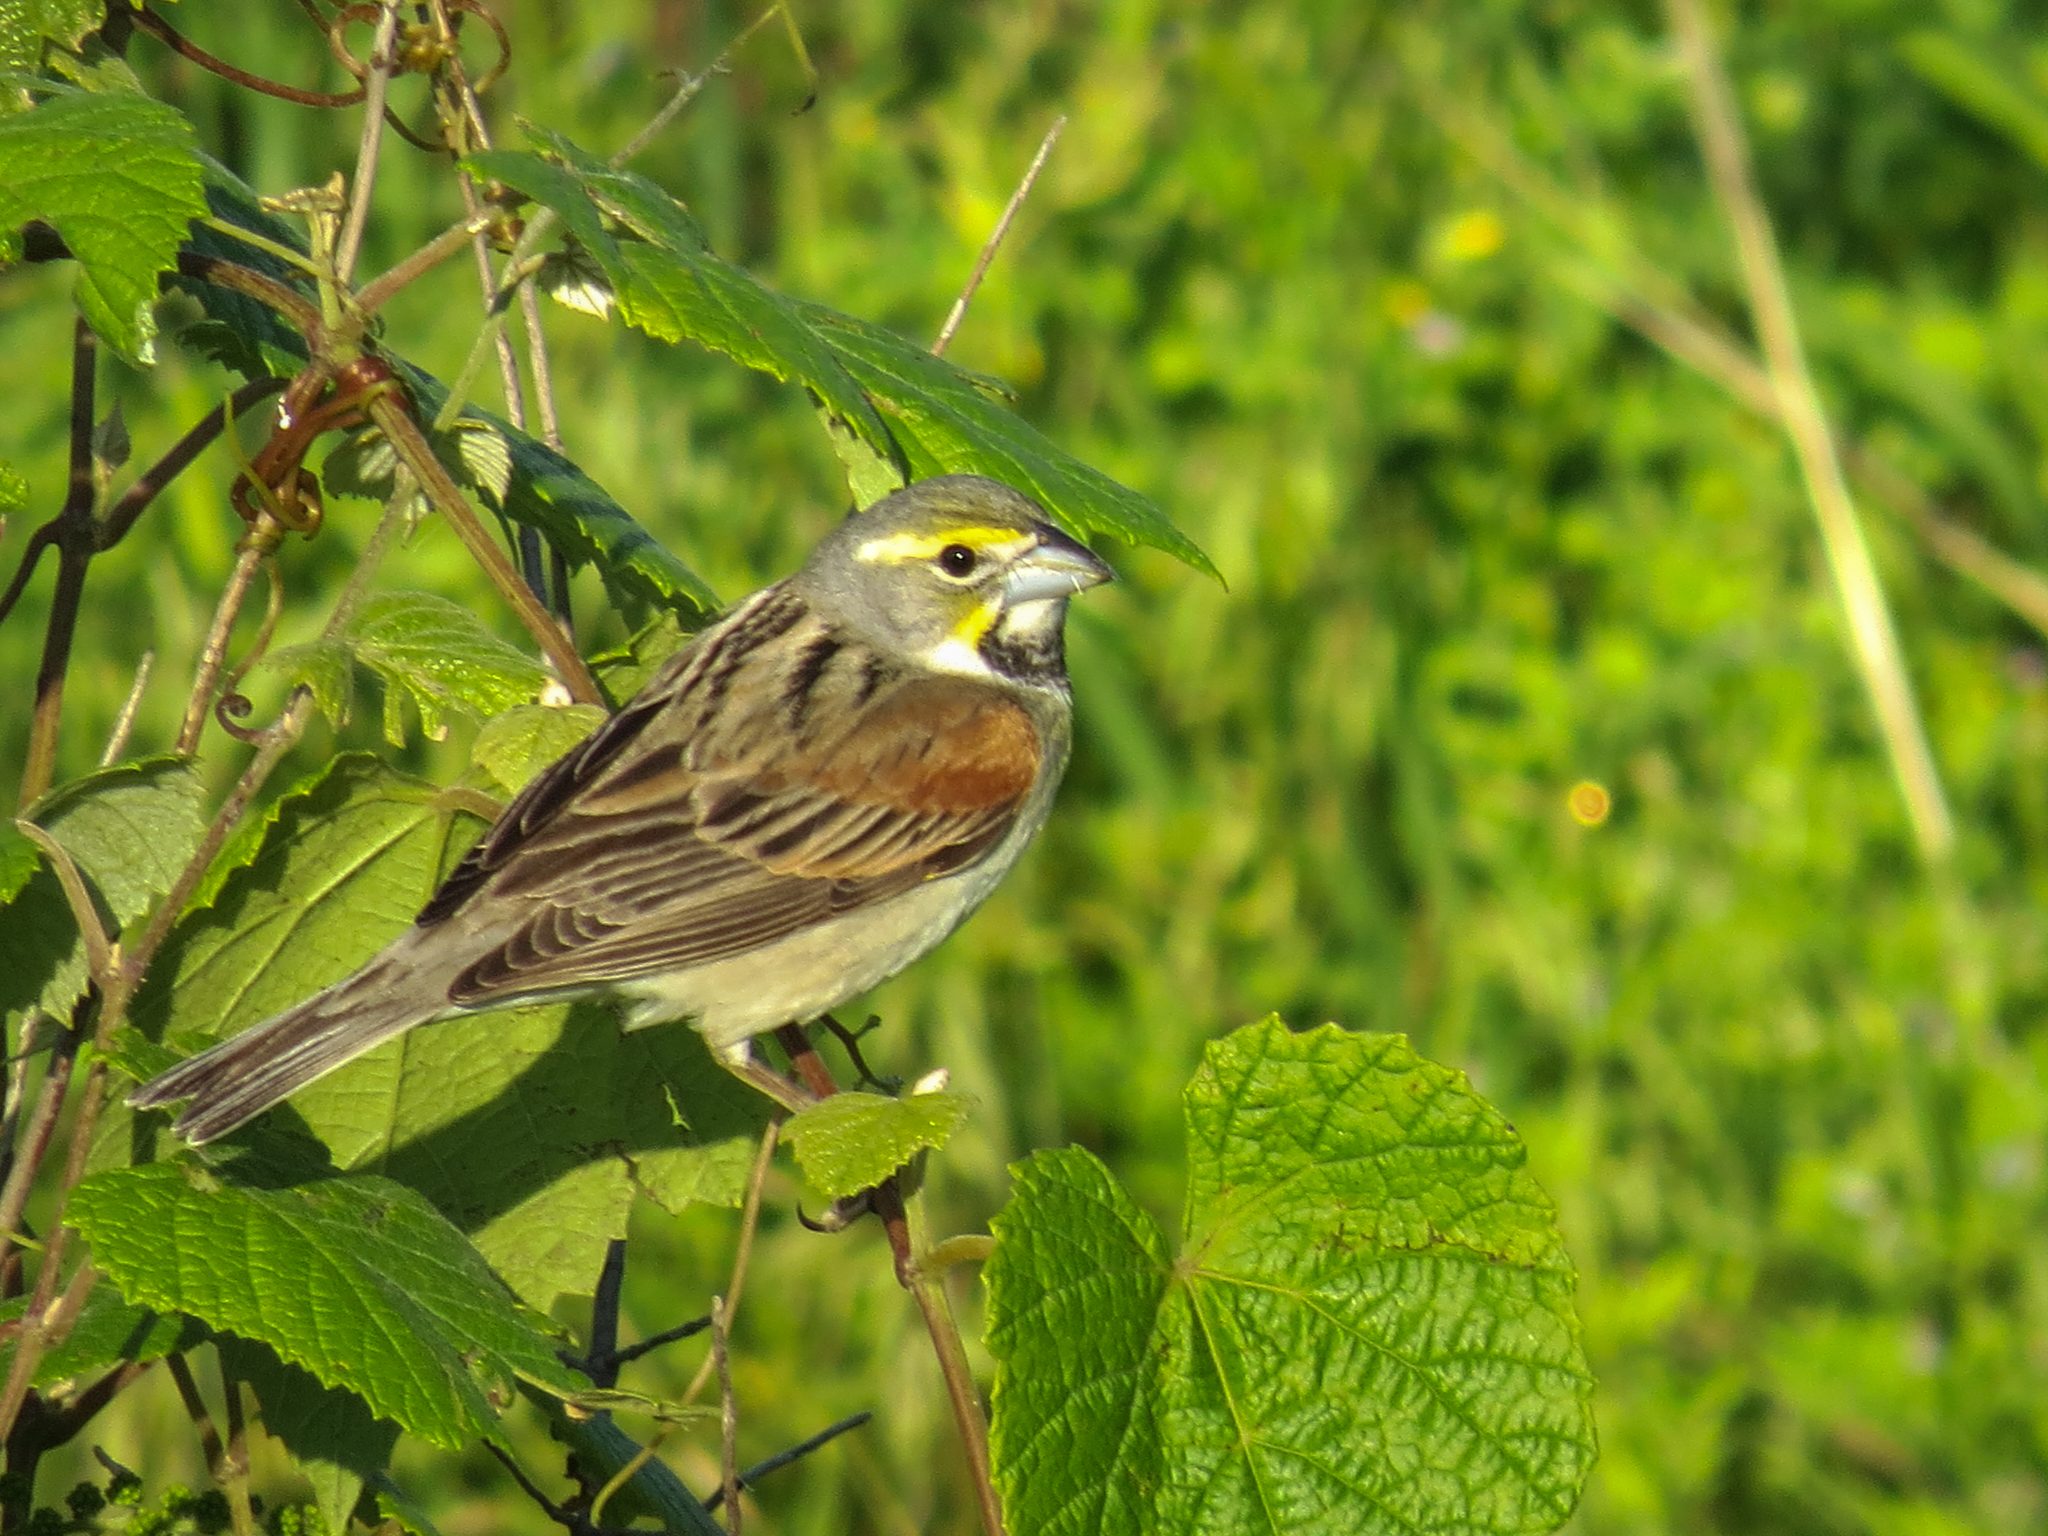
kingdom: Animalia
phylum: Chordata
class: Aves
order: Passeriformes
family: Cardinalidae
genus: Spiza
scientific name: Spiza americana
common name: Dickcissel
